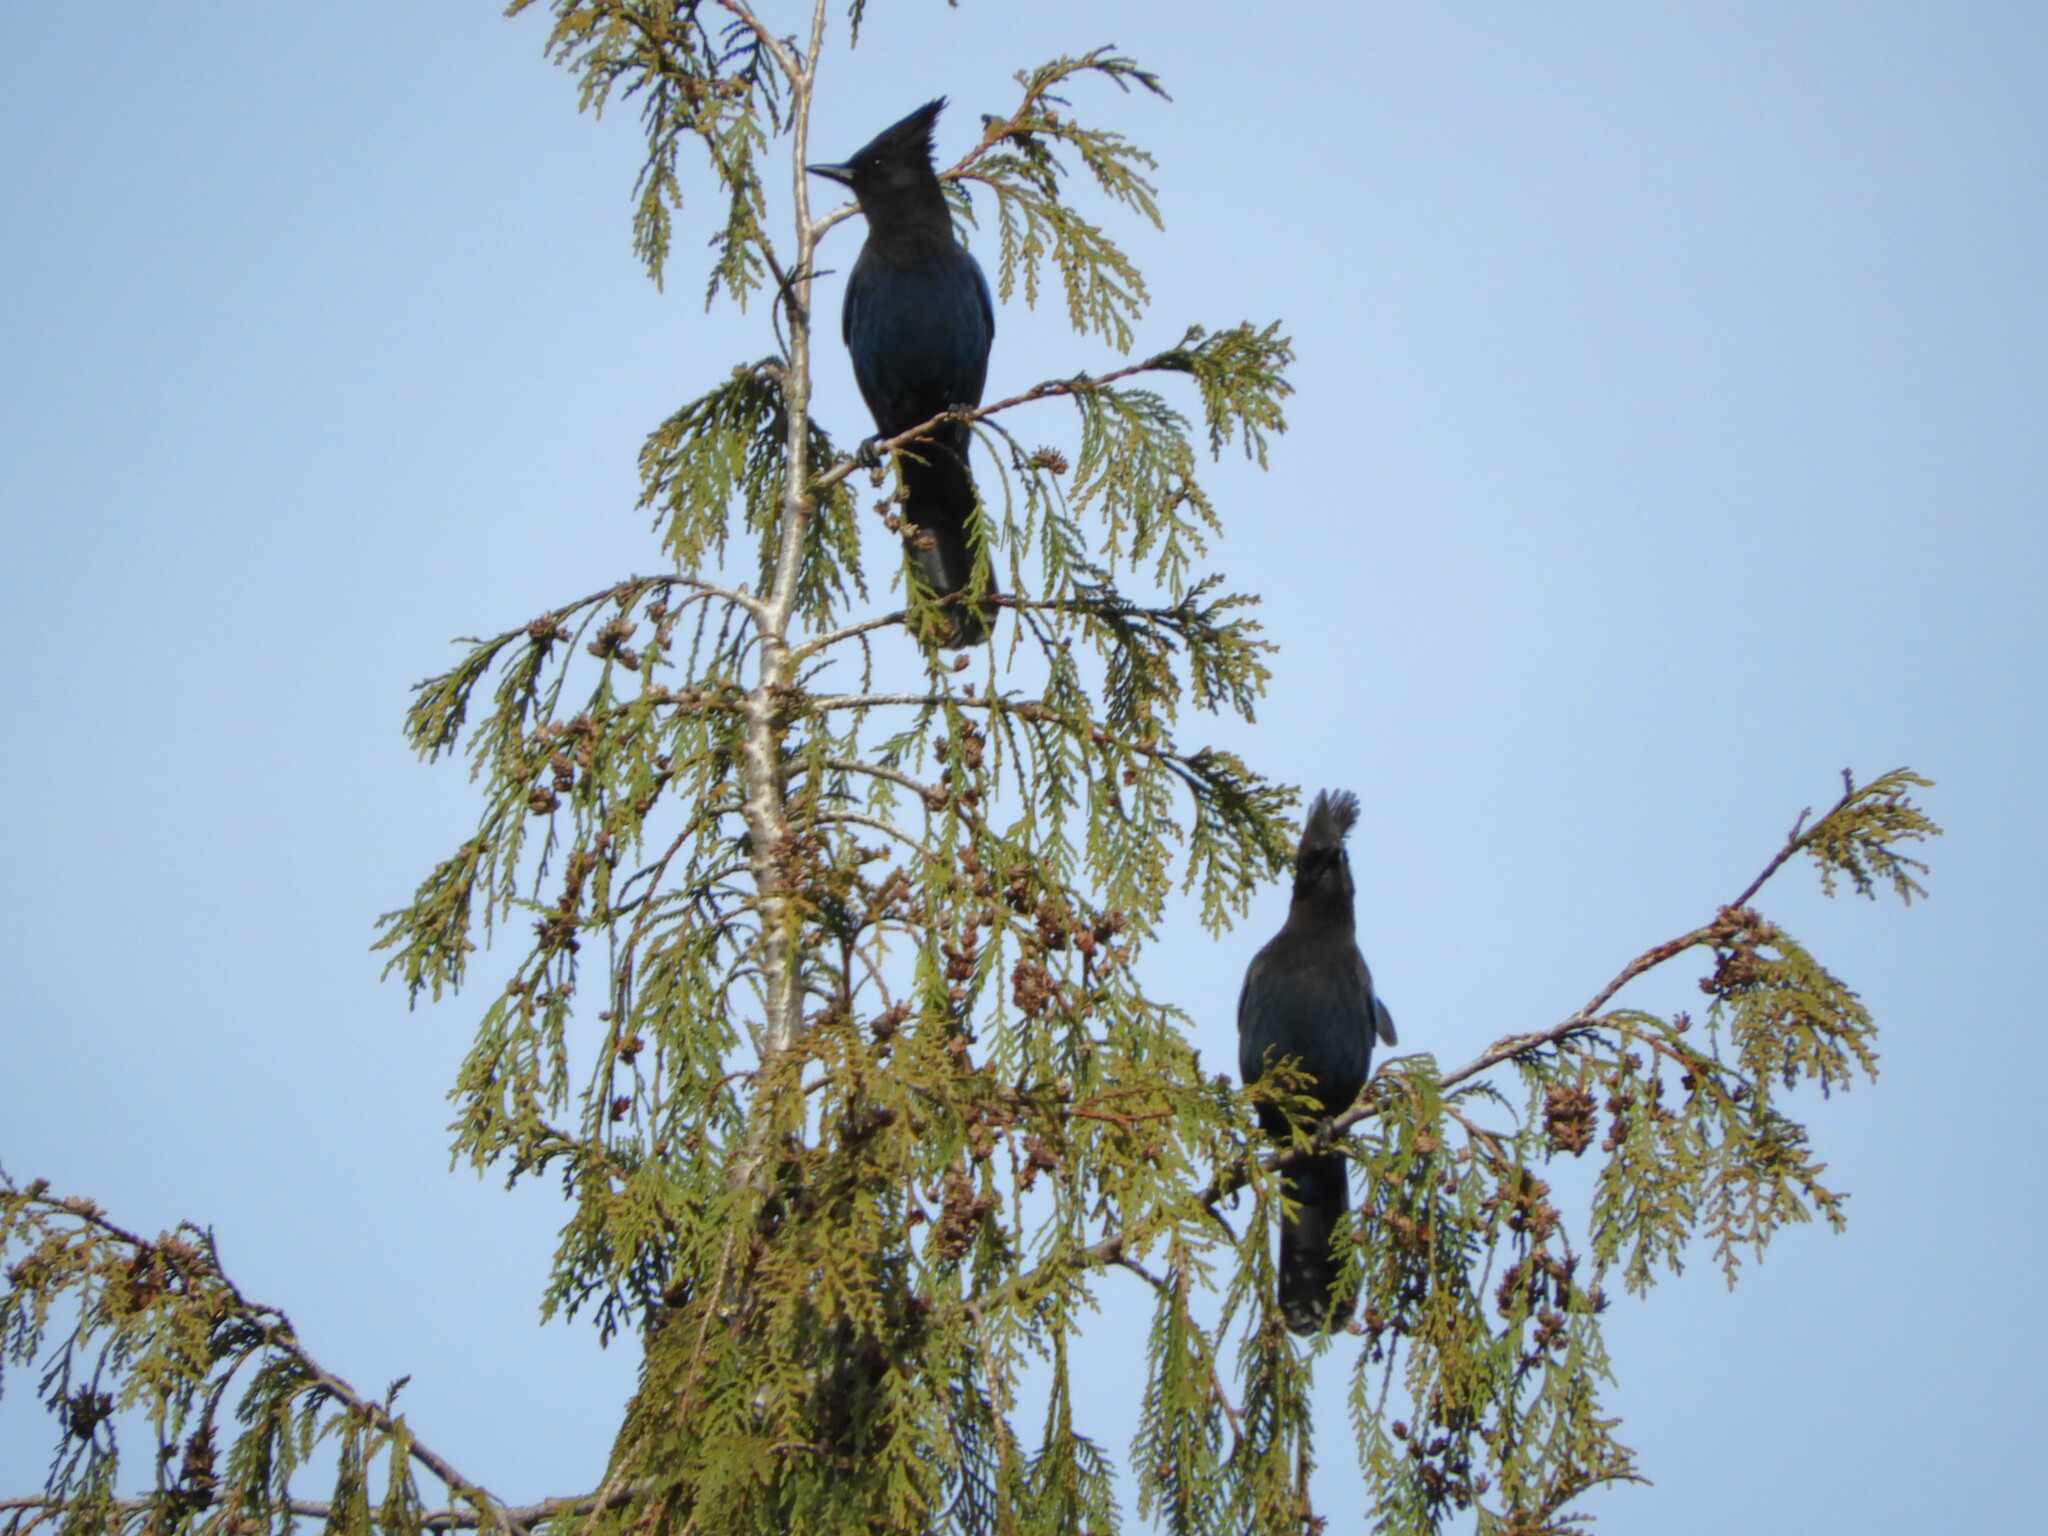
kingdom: Animalia
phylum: Chordata
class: Aves
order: Passeriformes
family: Corvidae
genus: Cyanocitta
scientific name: Cyanocitta stelleri
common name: Steller's jay
